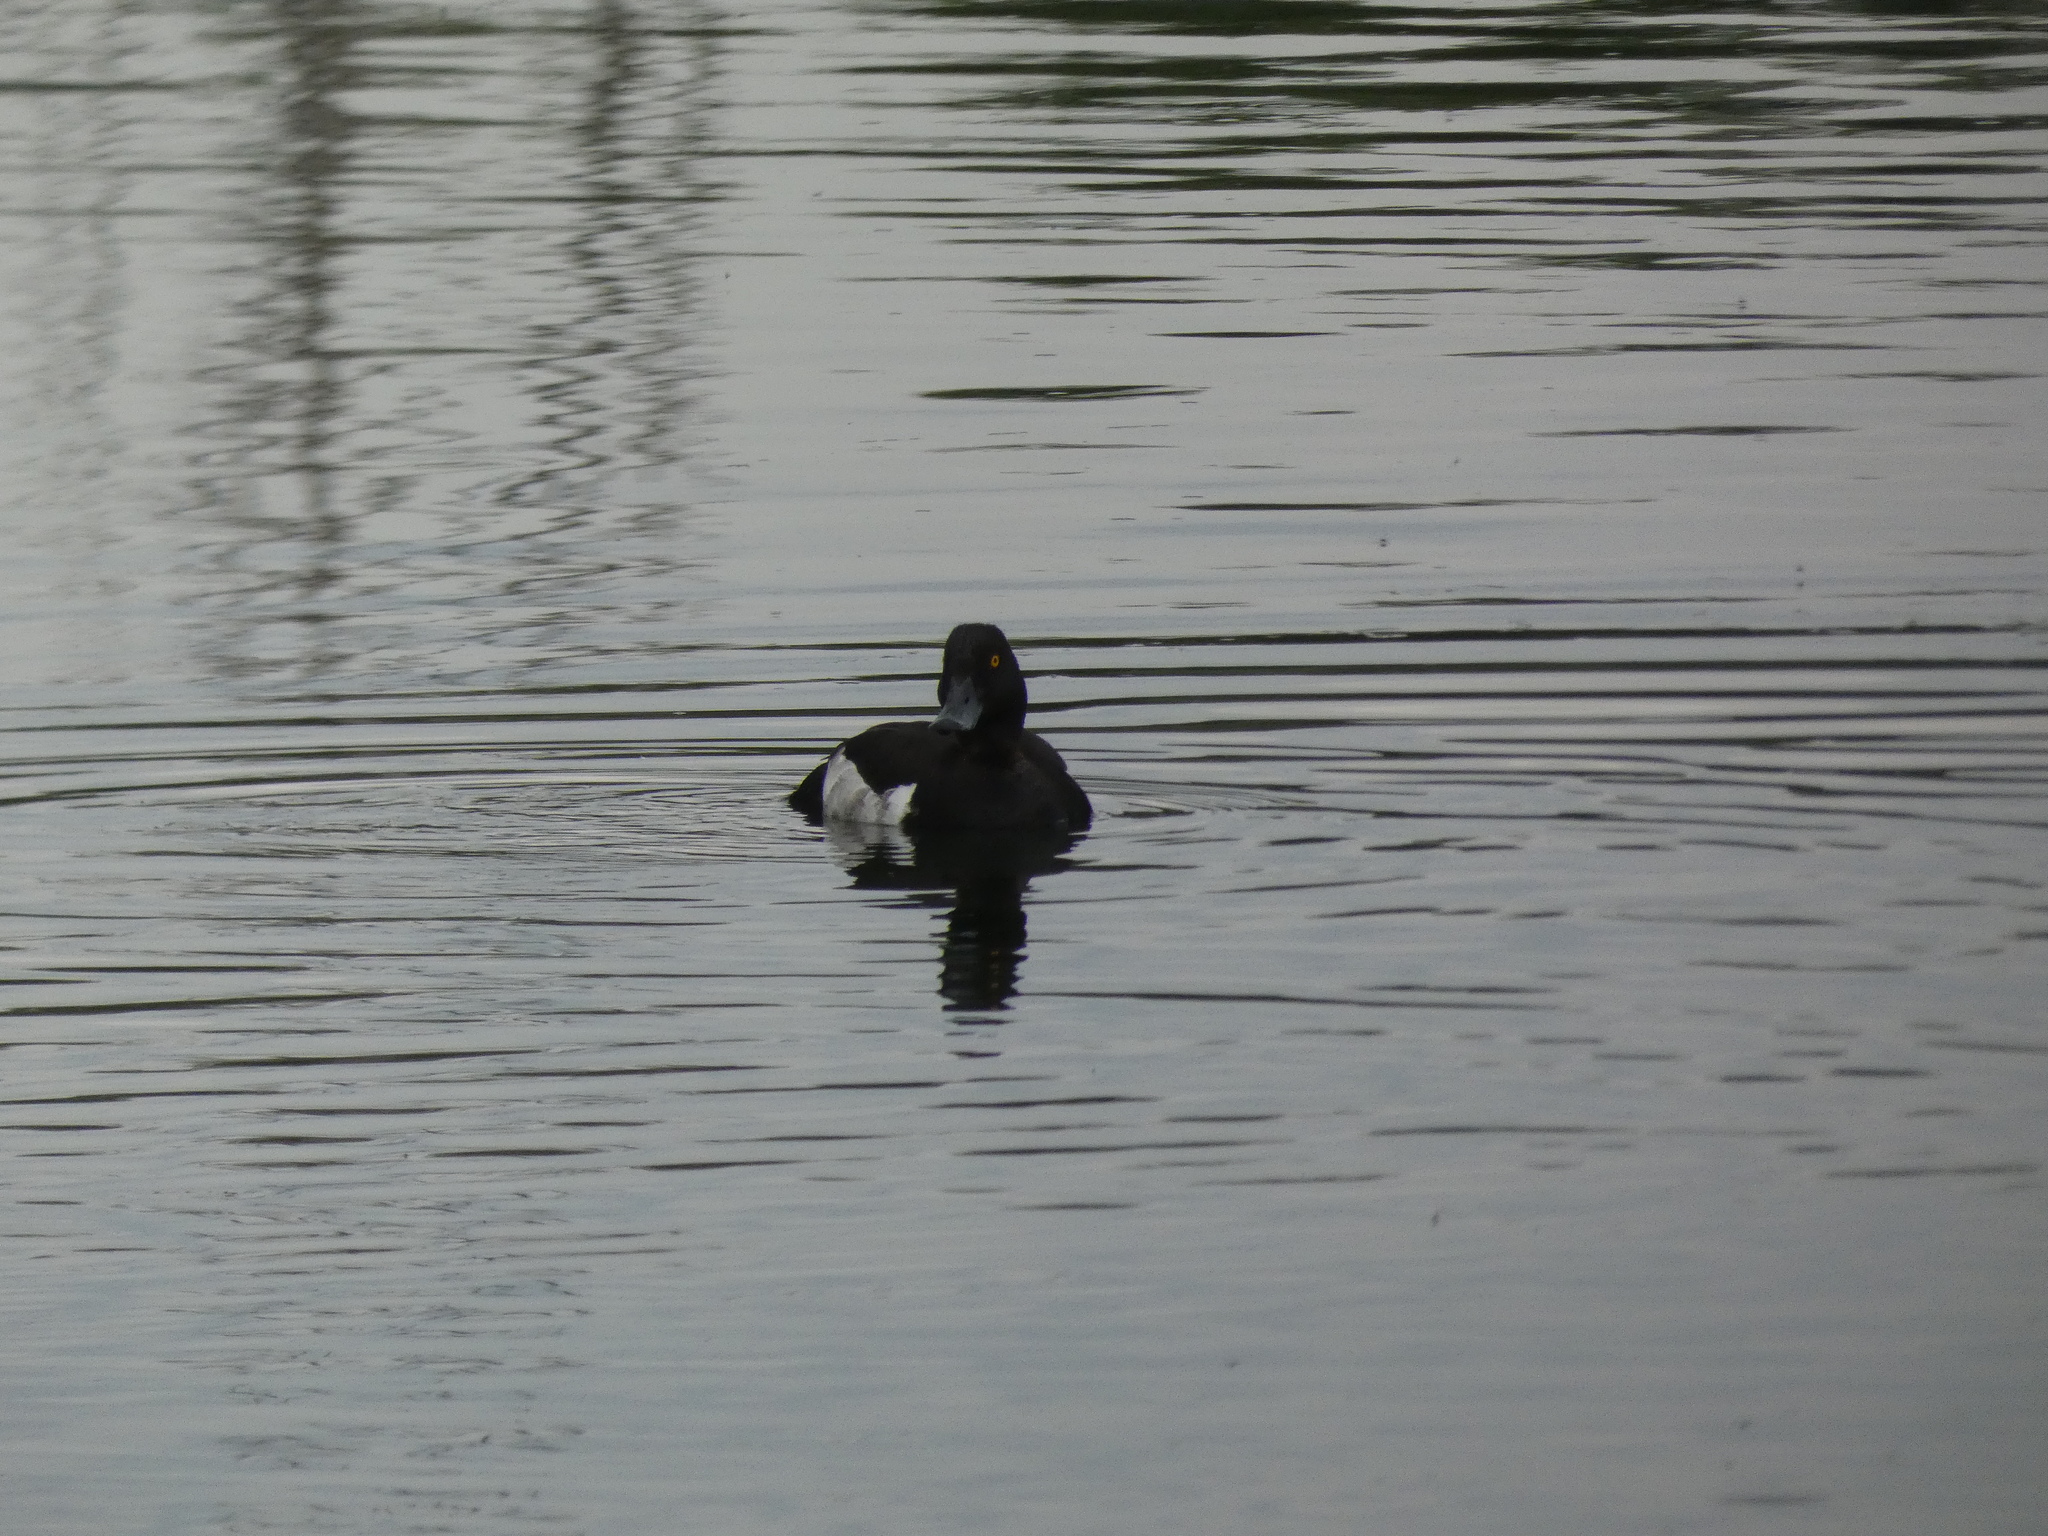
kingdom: Animalia
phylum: Chordata
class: Aves
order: Anseriformes
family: Anatidae
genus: Aythya
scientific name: Aythya fuligula
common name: Tufted duck
